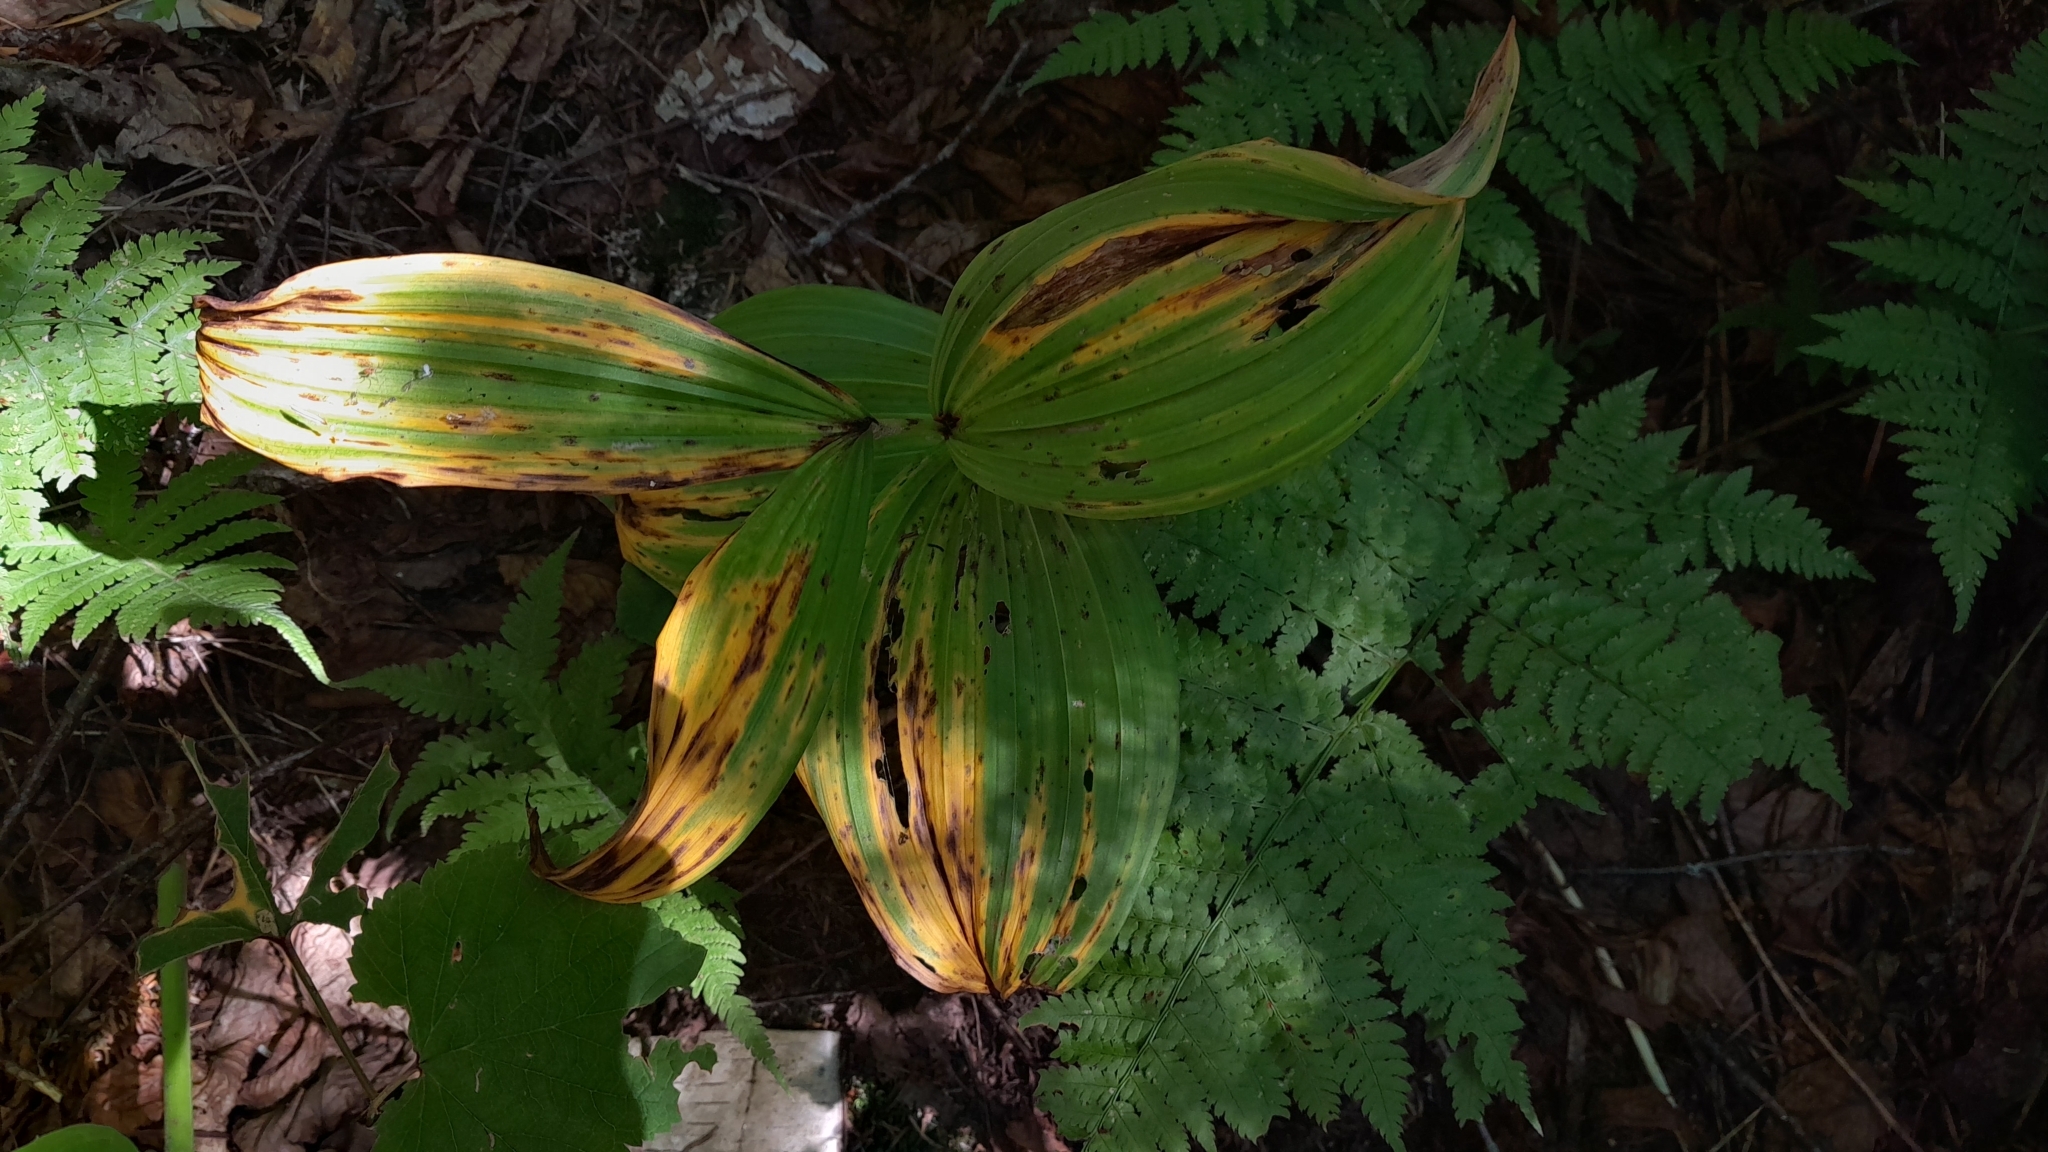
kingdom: Plantae
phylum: Tracheophyta
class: Liliopsida
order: Liliales
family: Melanthiaceae
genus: Veratrum
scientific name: Veratrum viride
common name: American false hellebore
